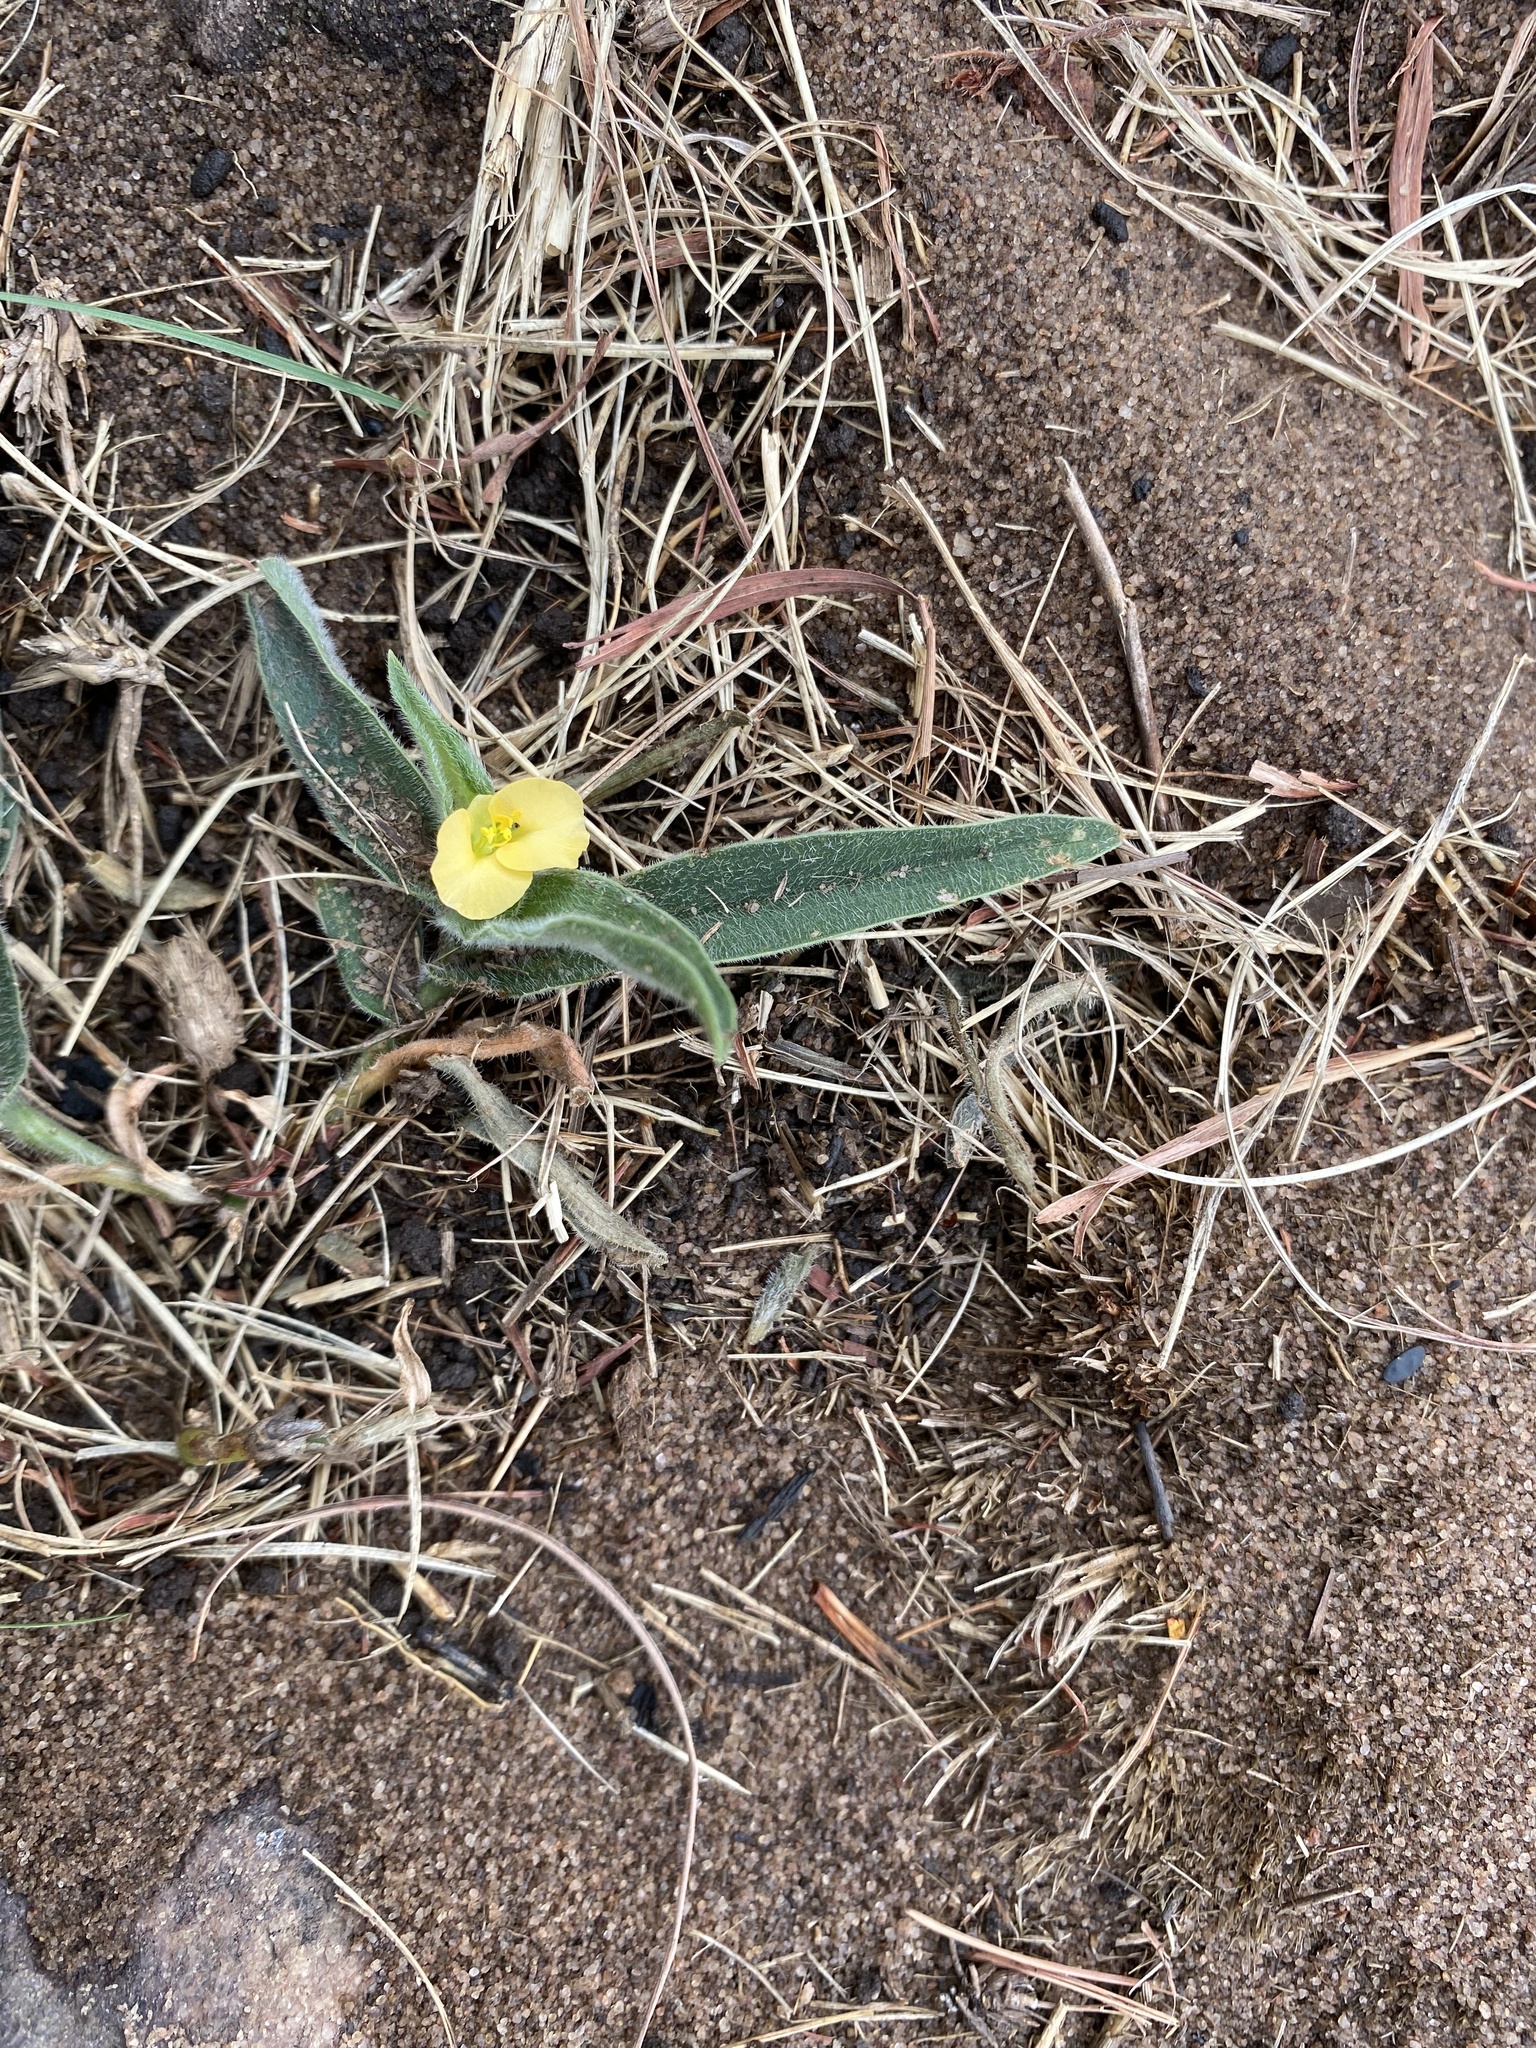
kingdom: Plantae
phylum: Tracheophyta
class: Liliopsida
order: Commelinales
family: Commelinaceae
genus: Commelina
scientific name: Commelina africana
